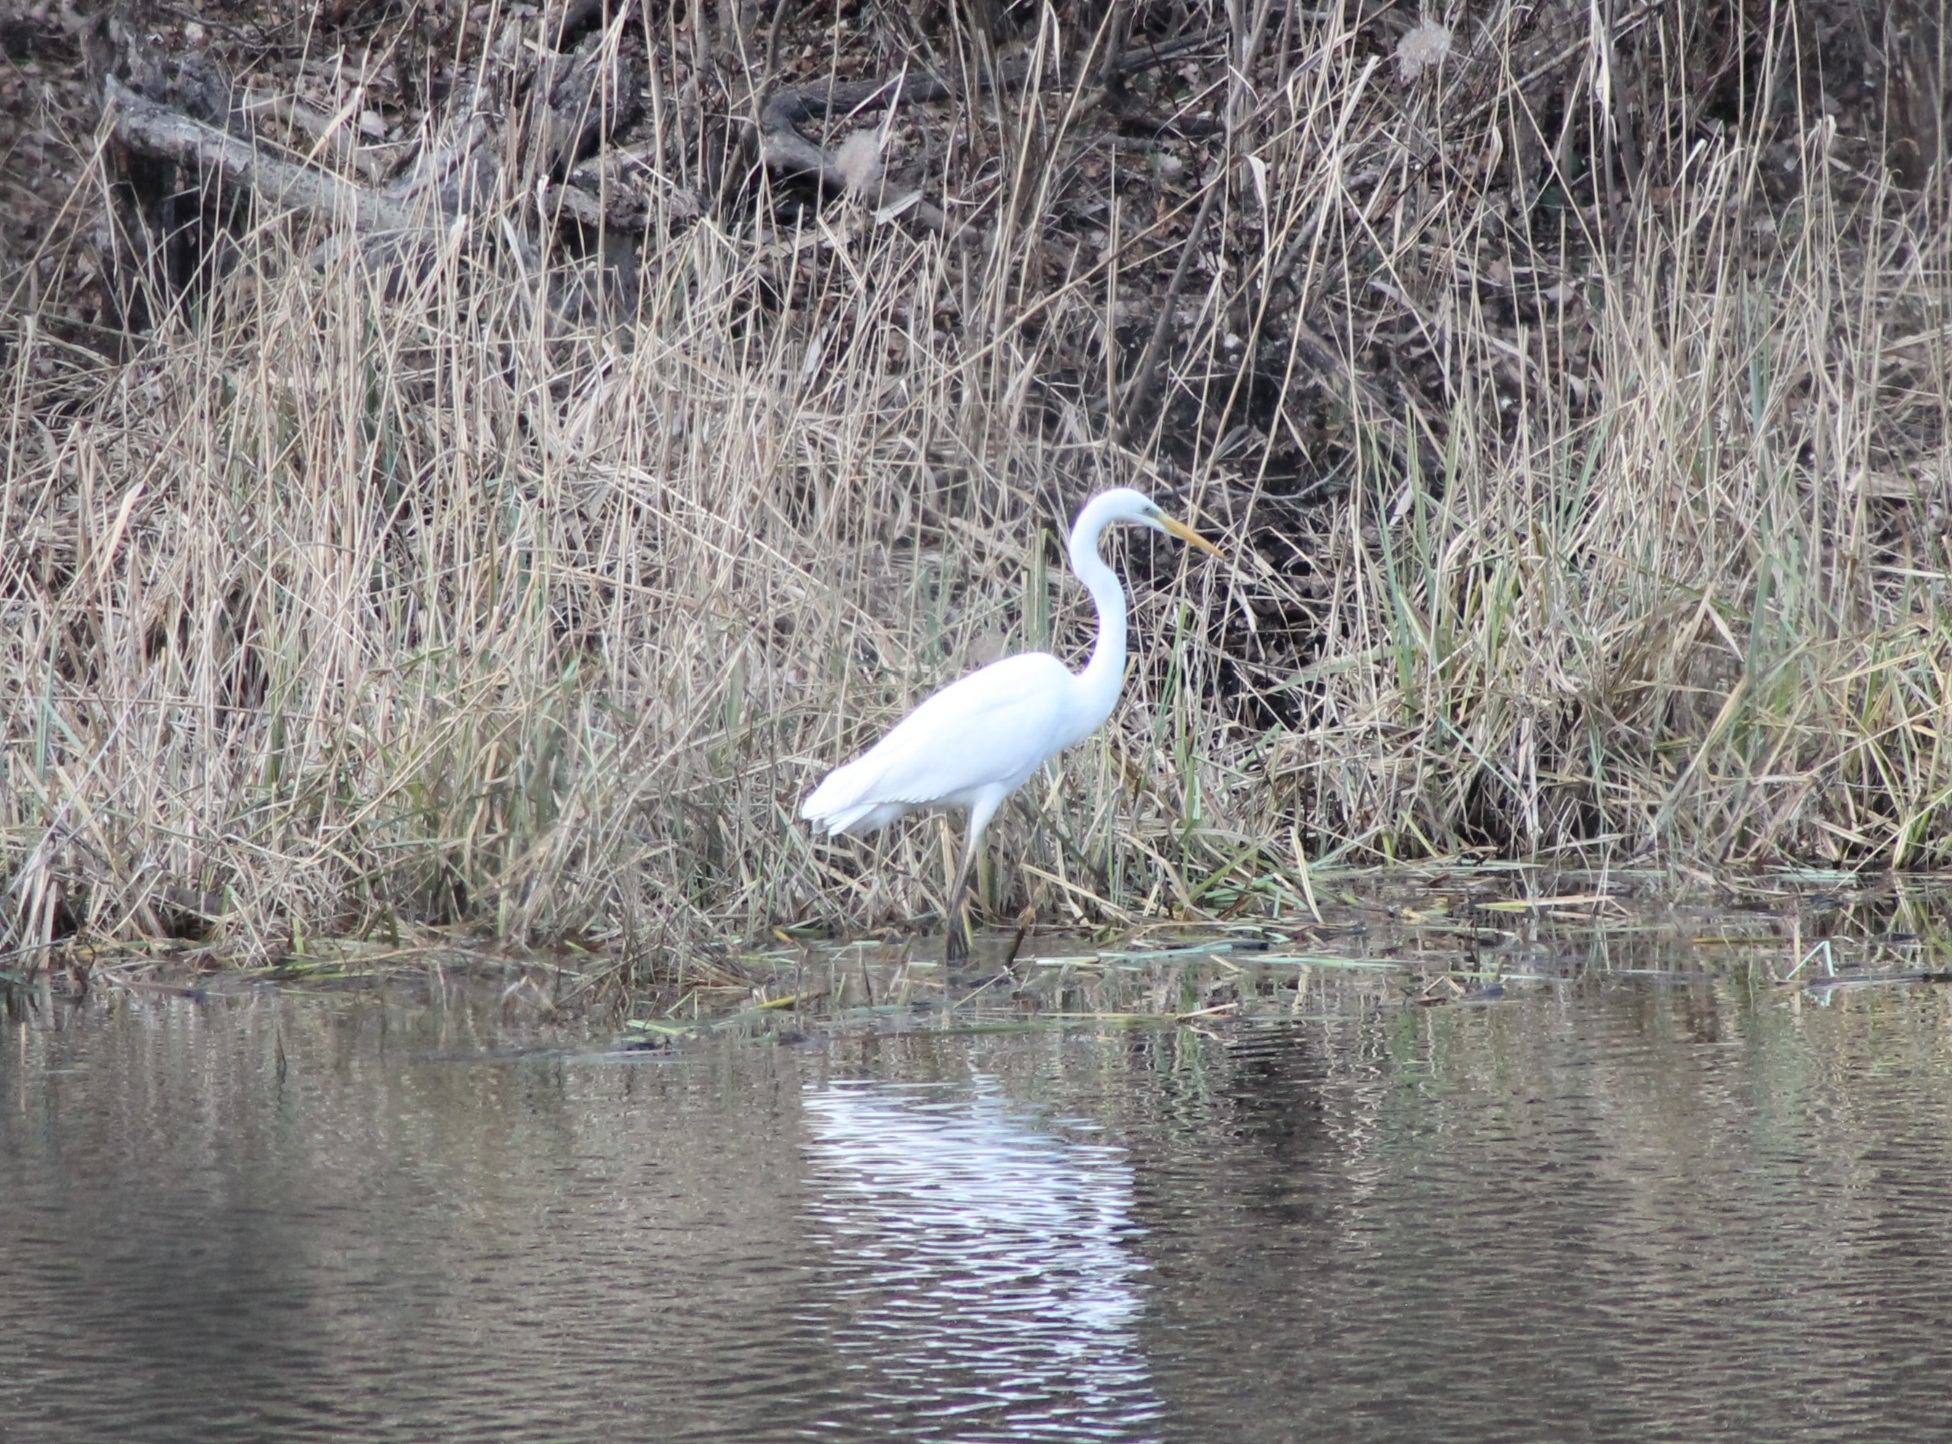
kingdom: Animalia
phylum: Chordata
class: Aves
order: Pelecaniformes
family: Ardeidae
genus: Ardea
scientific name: Ardea alba
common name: Great egret
